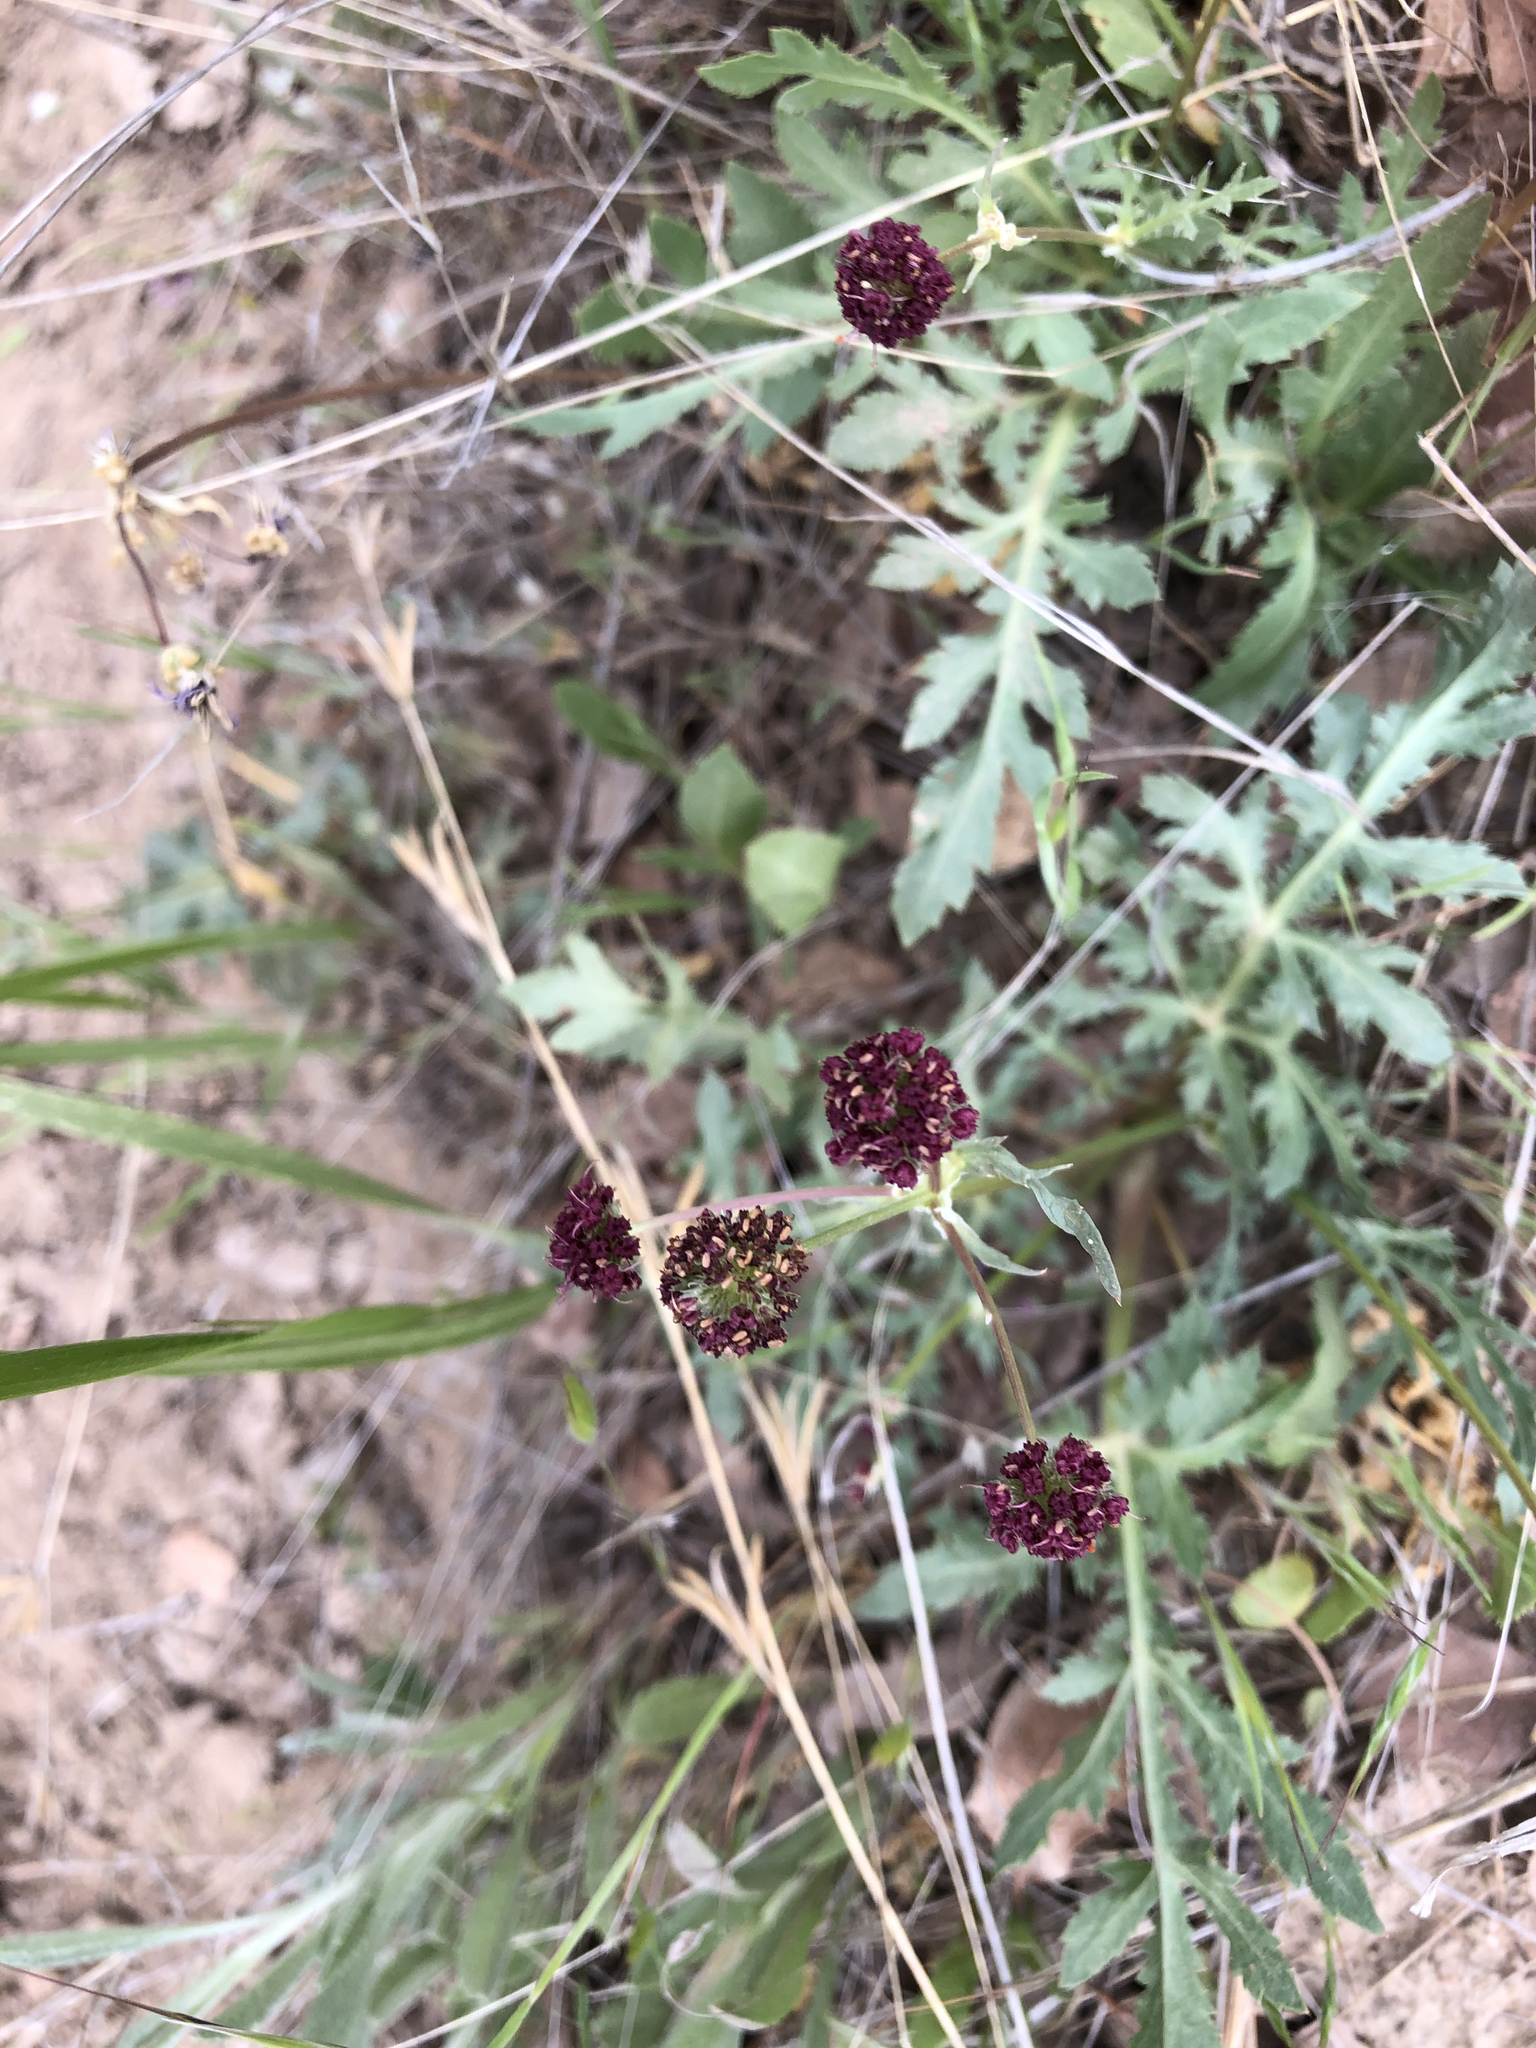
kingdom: Plantae
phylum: Tracheophyta
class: Magnoliopsida
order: Apiales
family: Apiaceae
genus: Sanicula
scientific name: Sanicula bipinnatifida
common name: Shoe-buttons
